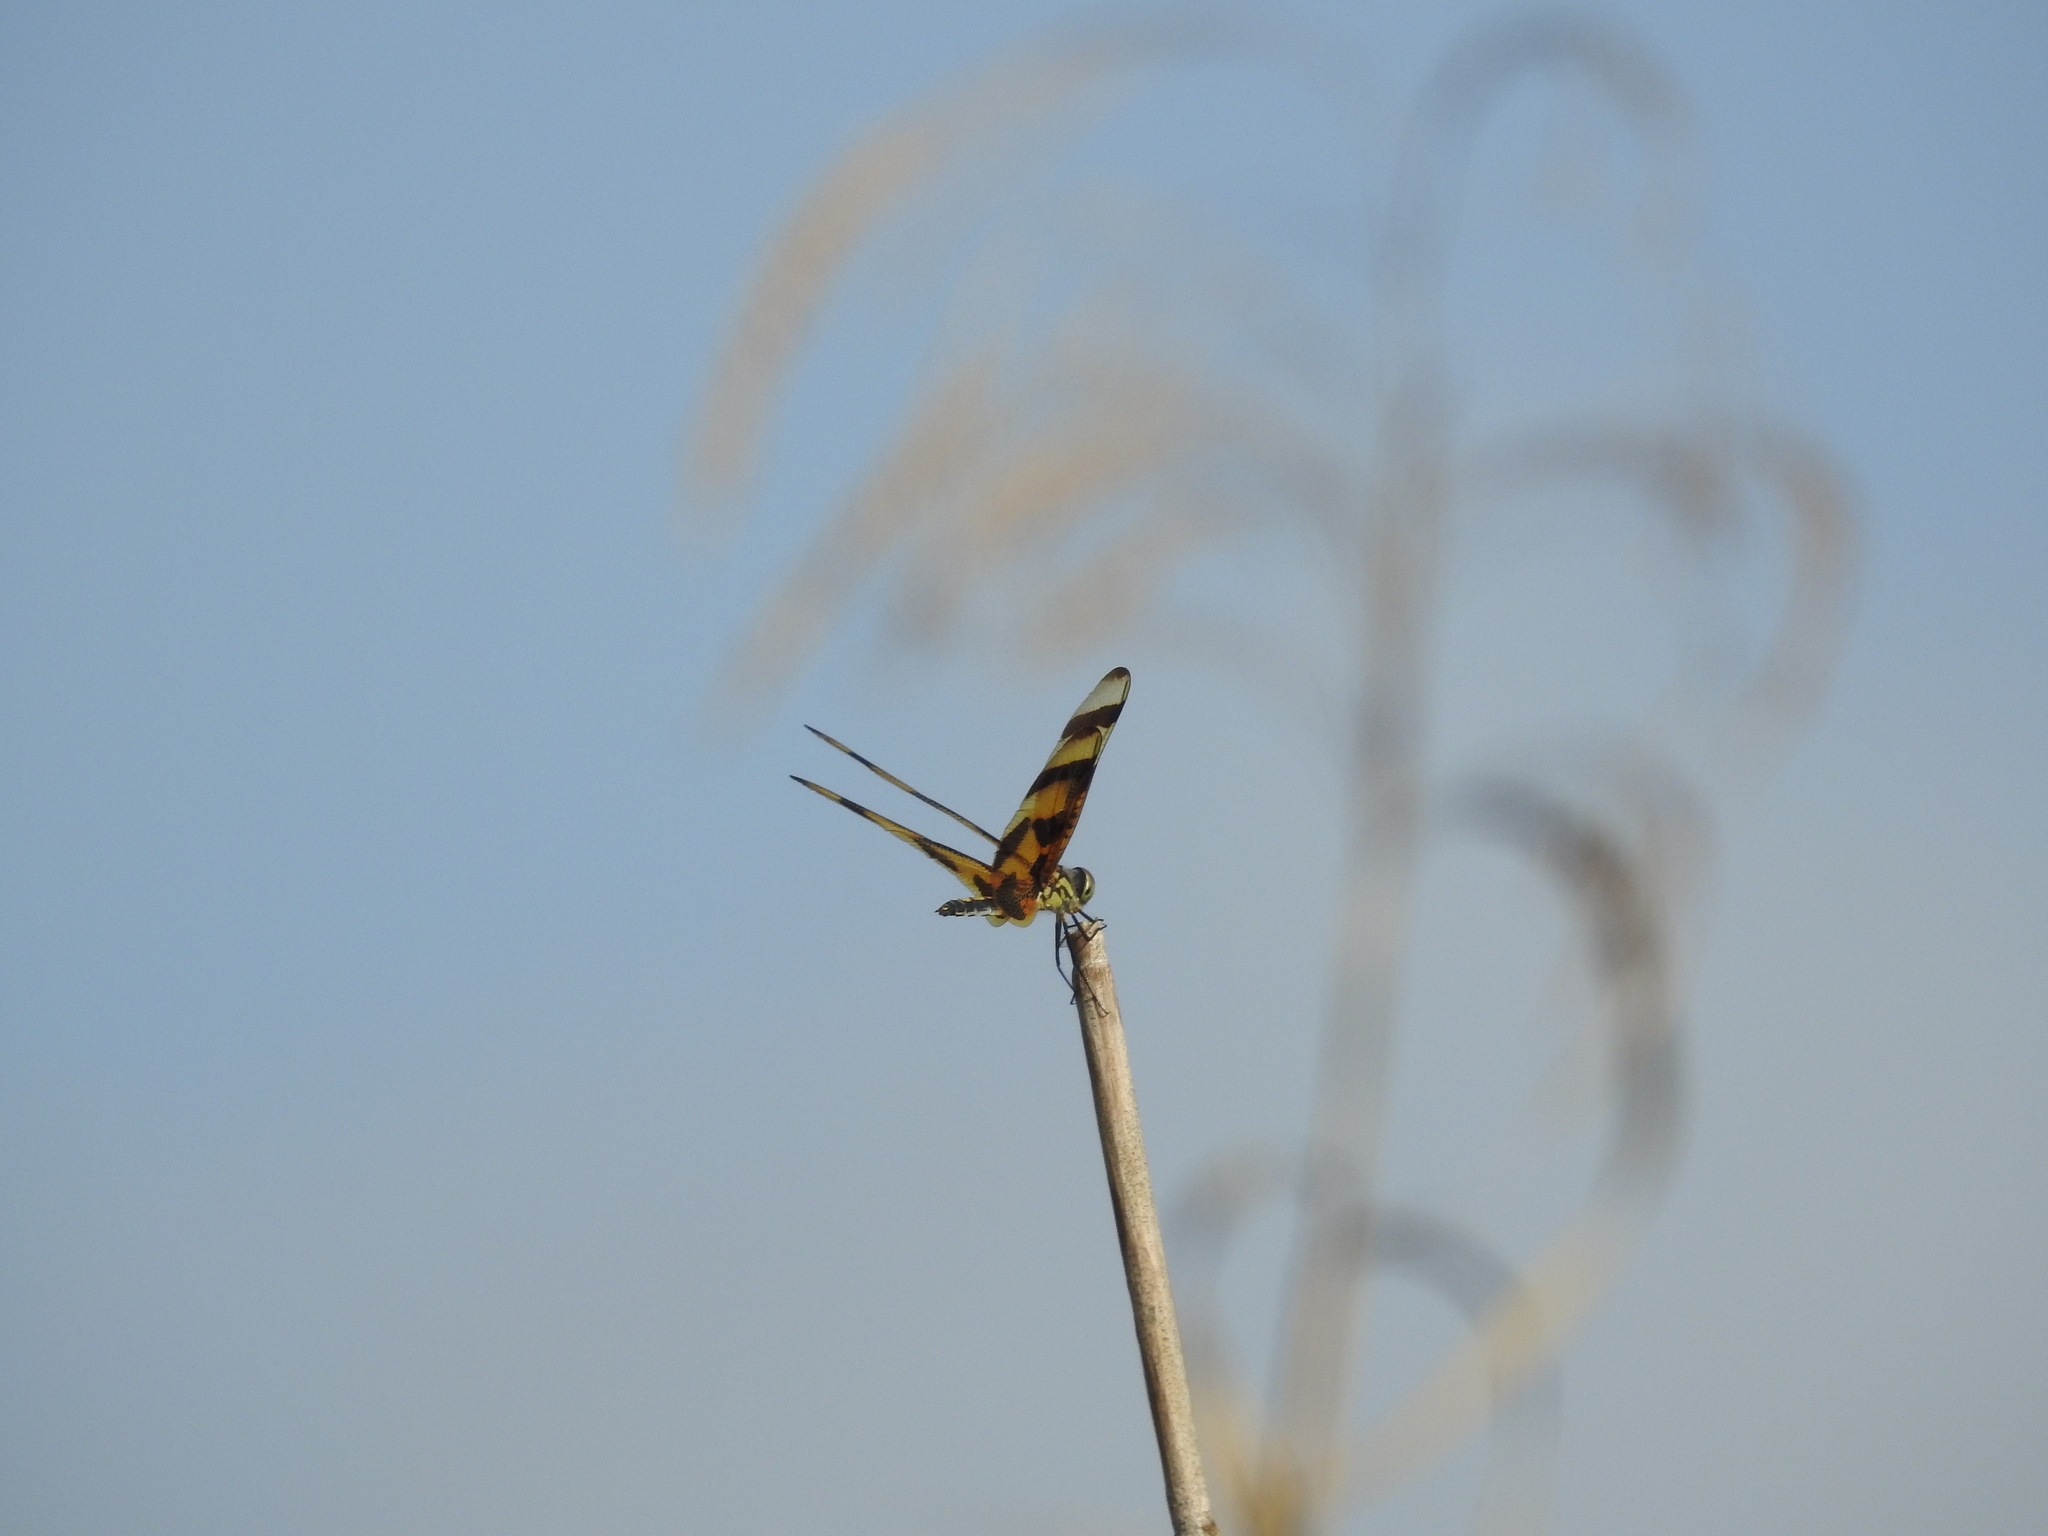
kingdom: Animalia
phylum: Arthropoda
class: Insecta
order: Odonata
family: Libellulidae
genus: Celithemis
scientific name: Celithemis eponina
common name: Halloween pennant
